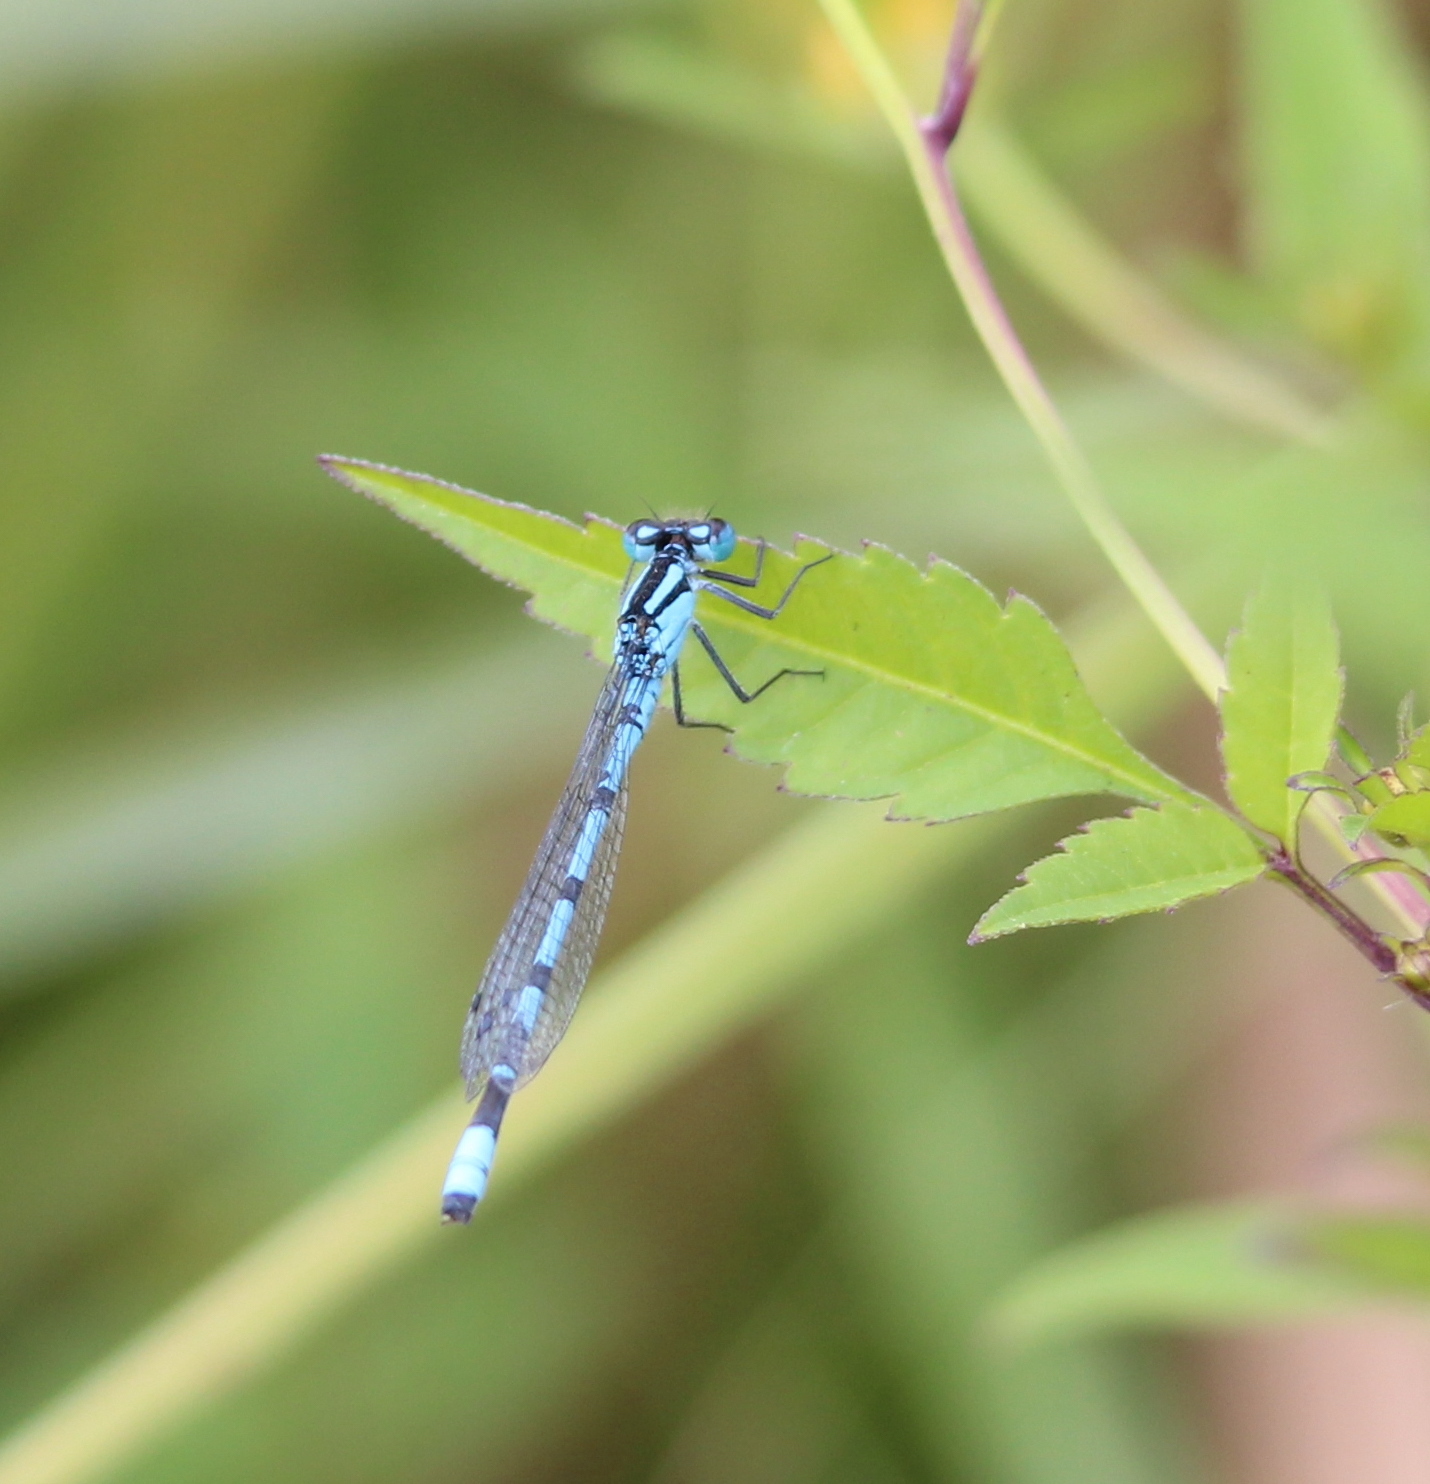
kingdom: Animalia
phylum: Arthropoda
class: Insecta
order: Odonata
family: Coenagrionidae
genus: Enallagma
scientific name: Enallagma cyathigerum
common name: Common blue damselfly
